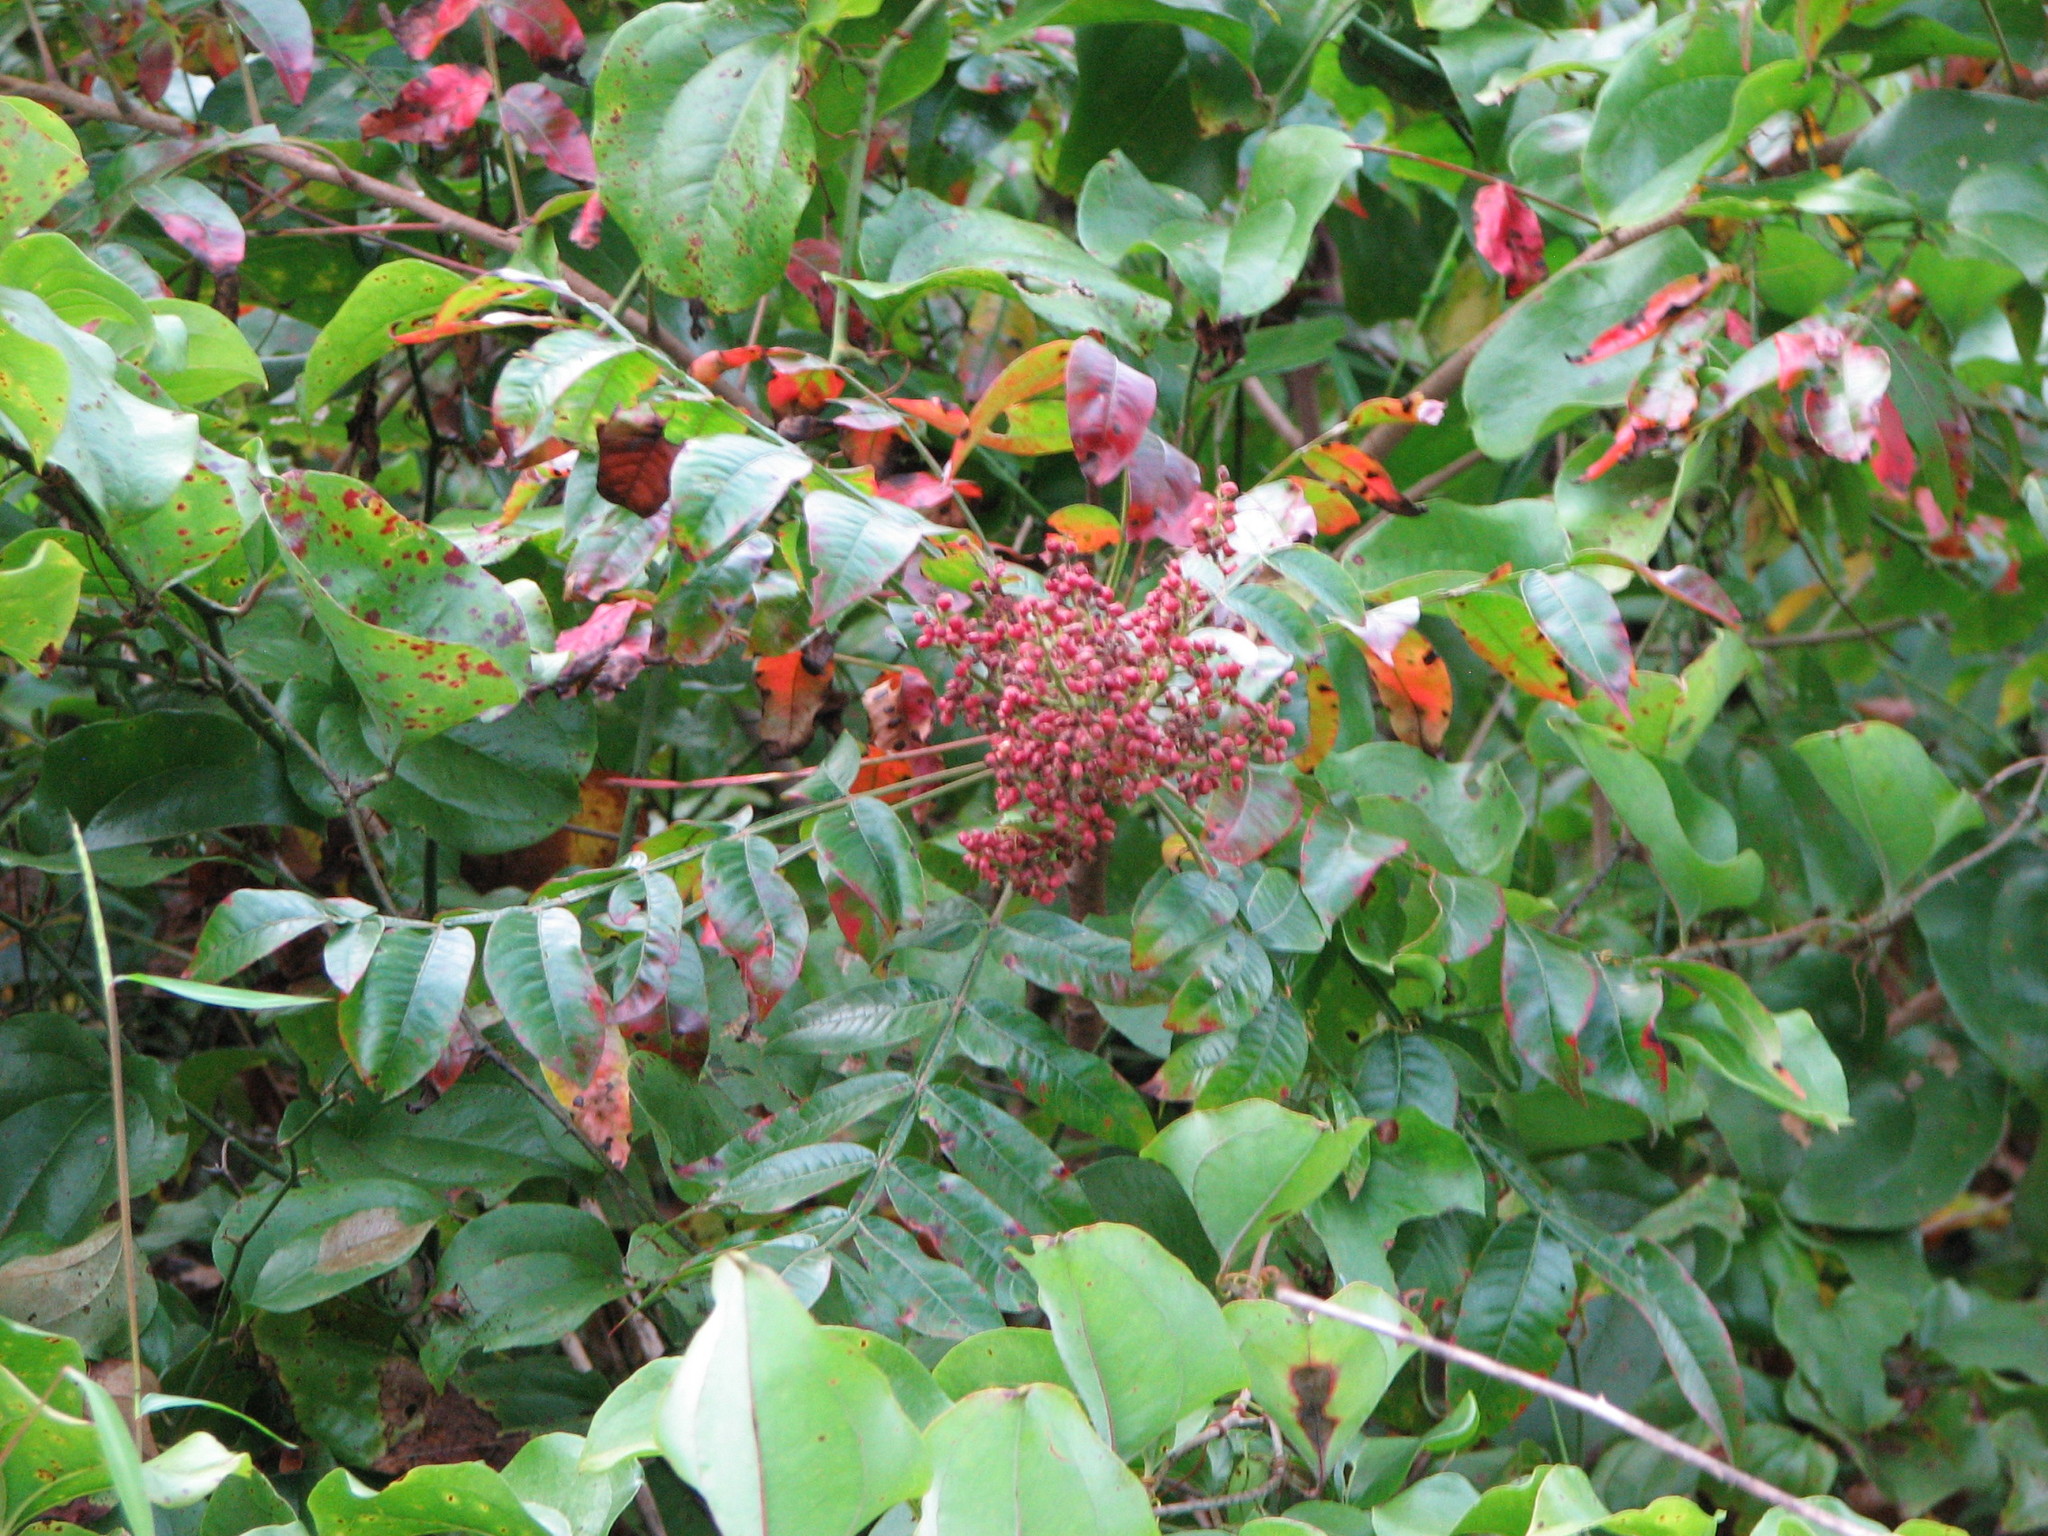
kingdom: Plantae
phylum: Tracheophyta
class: Magnoliopsida
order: Sapindales
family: Anacardiaceae
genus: Rhus
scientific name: Rhus copallina
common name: Shining sumac
